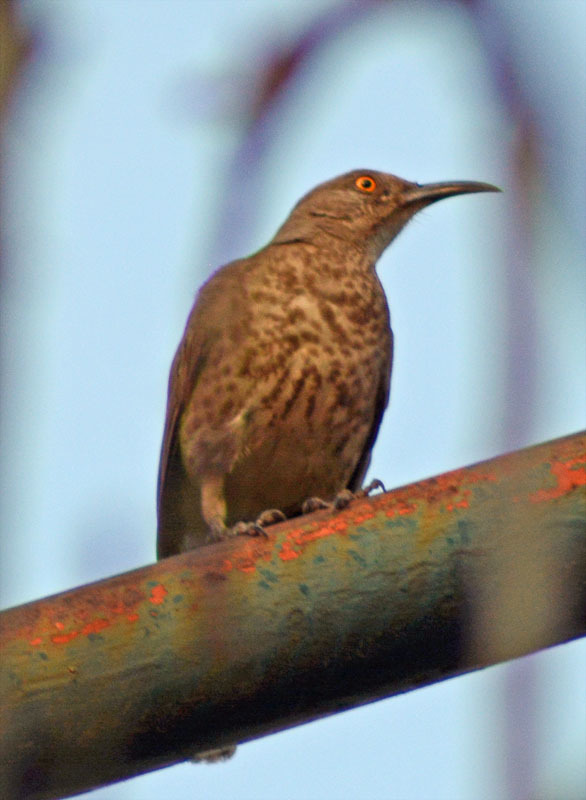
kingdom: Animalia
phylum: Chordata
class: Aves
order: Passeriformes
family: Mimidae
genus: Toxostoma
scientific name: Toxostoma curvirostre
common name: Curve-billed thrasher
